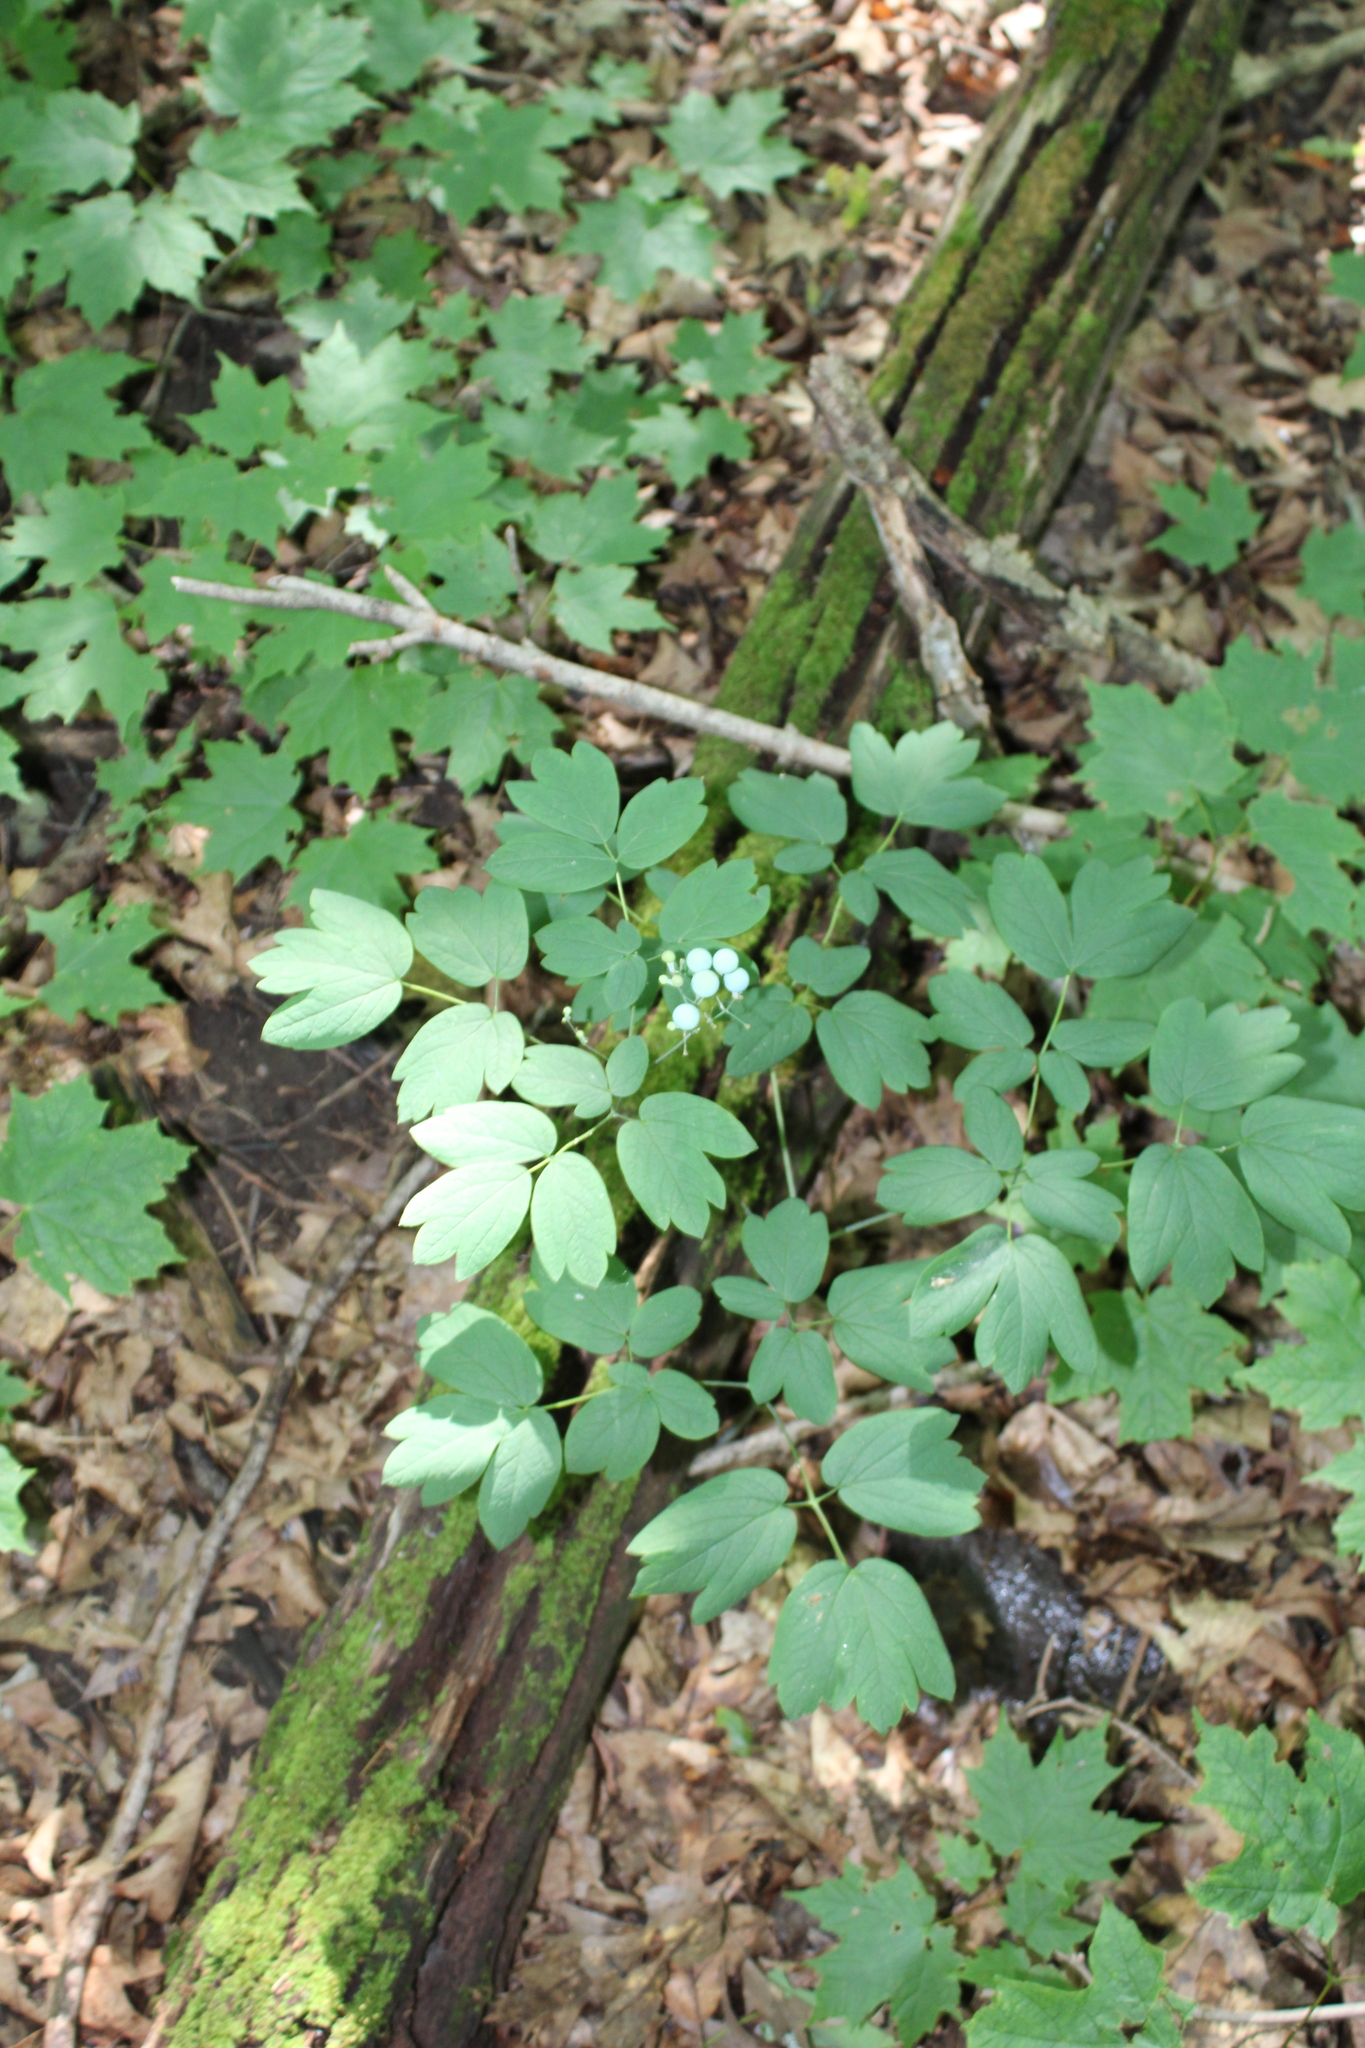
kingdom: Plantae
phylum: Tracheophyta
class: Magnoliopsida
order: Ranunculales
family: Berberidaceae
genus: Caulophyllum
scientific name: Caulophyllum thalictroides
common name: Blue cohosh
